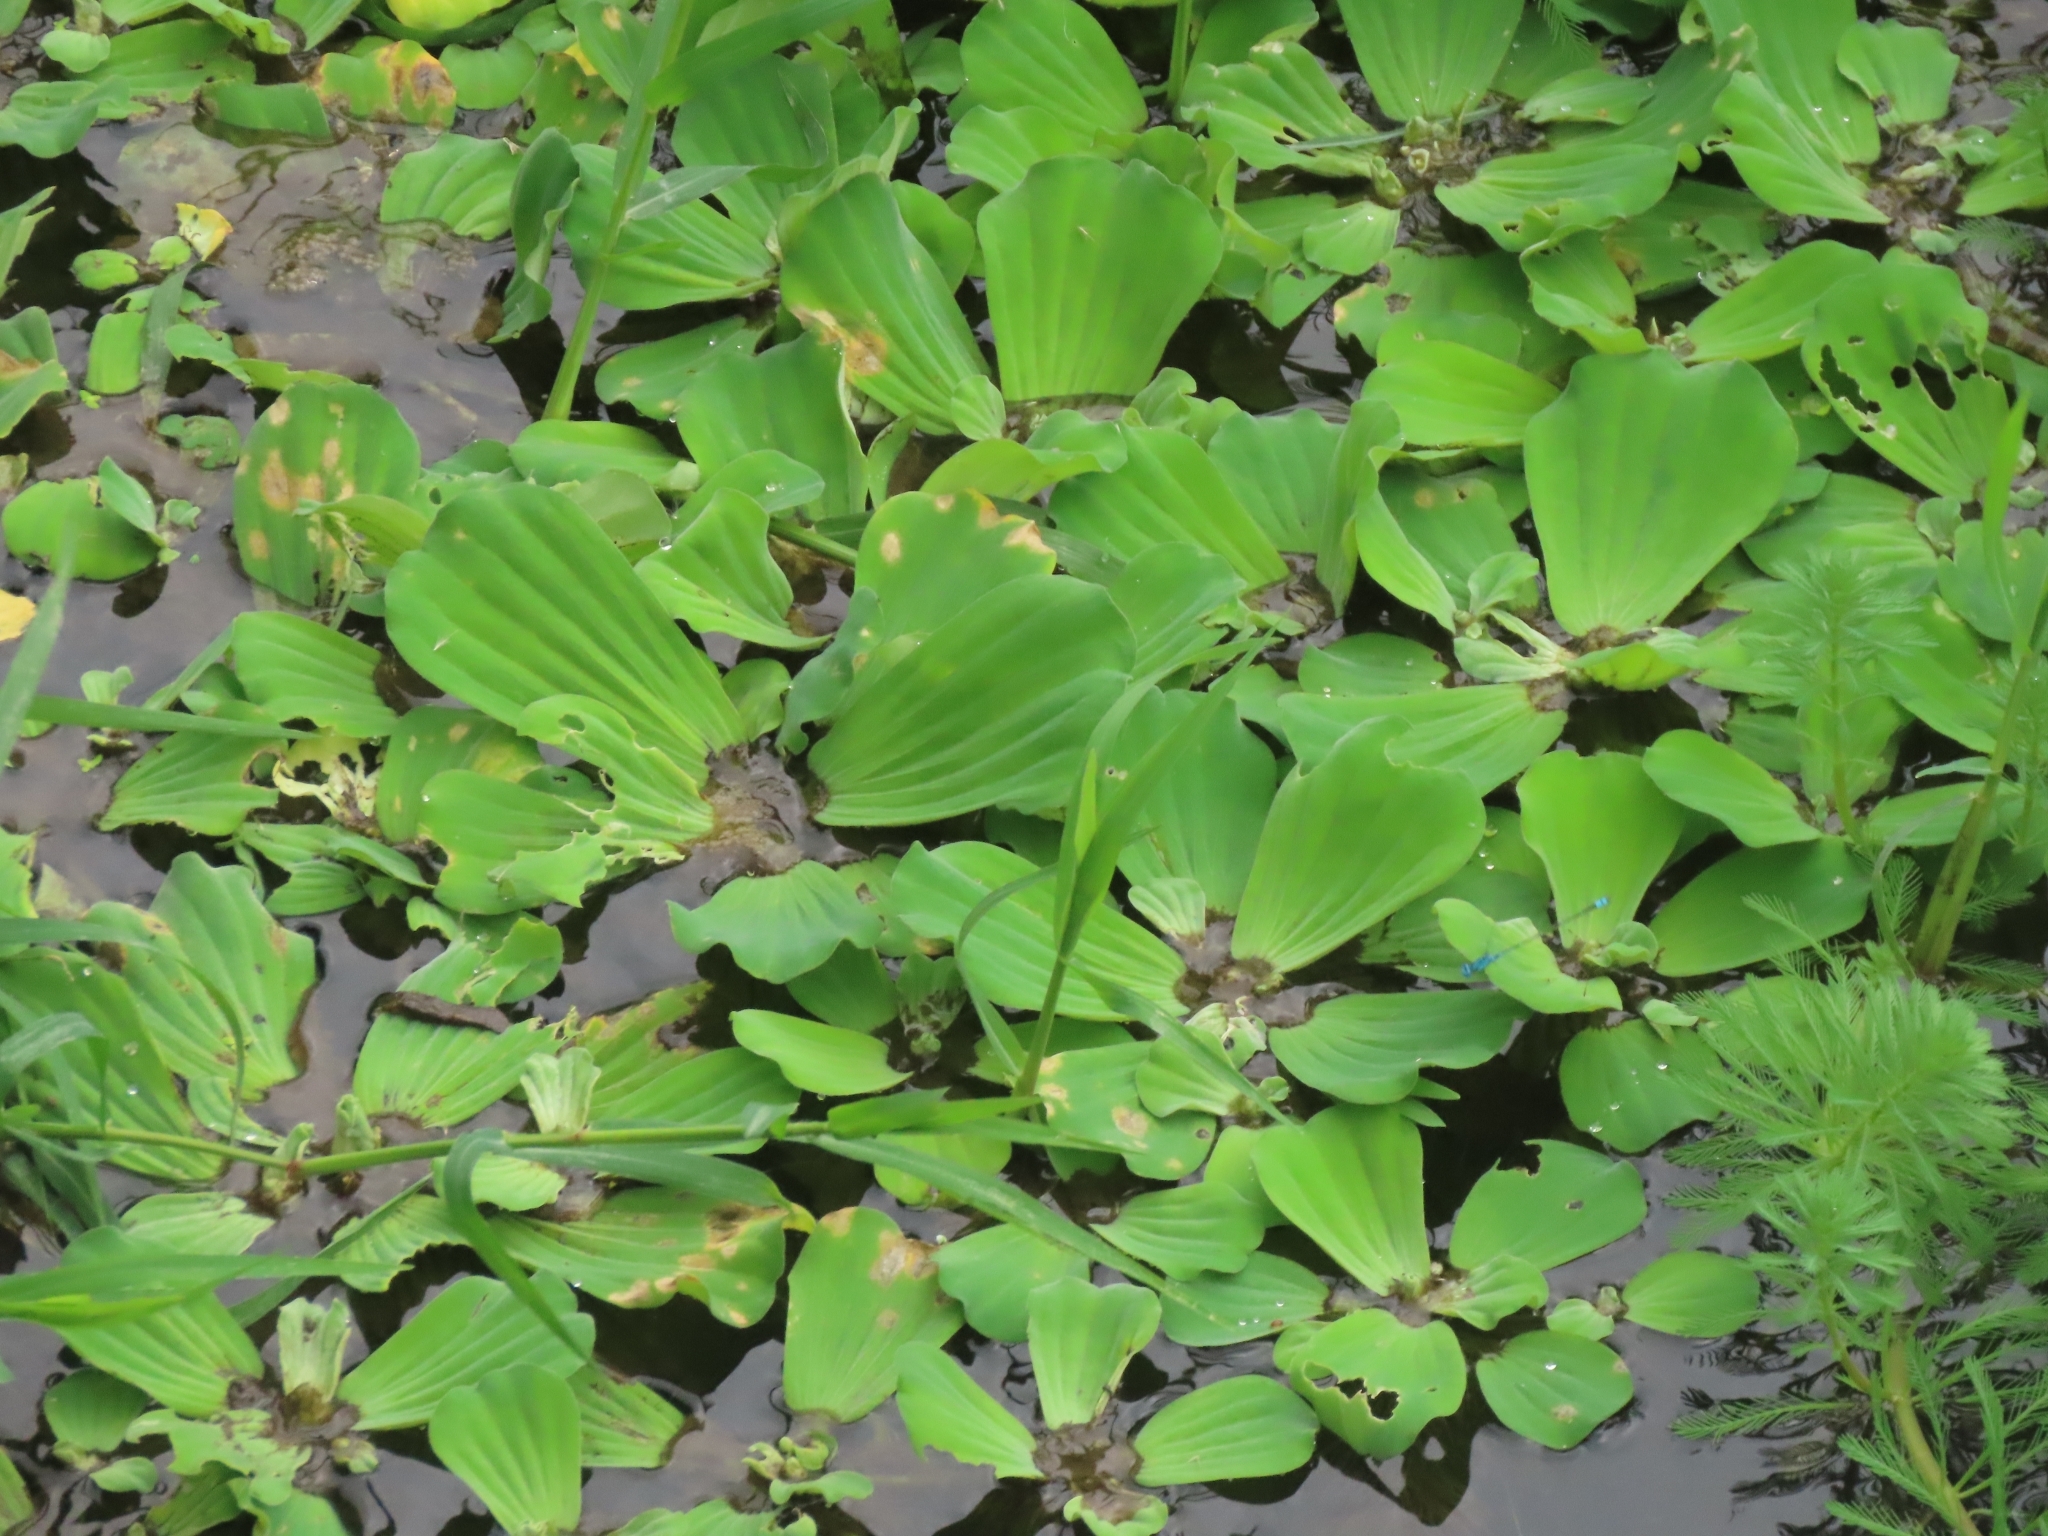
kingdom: Plantae
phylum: Tracheophyta
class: Liliopsida
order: Alismatales
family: Araceae
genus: Pistia
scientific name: Pistia stratiotes
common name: Water lettuce
